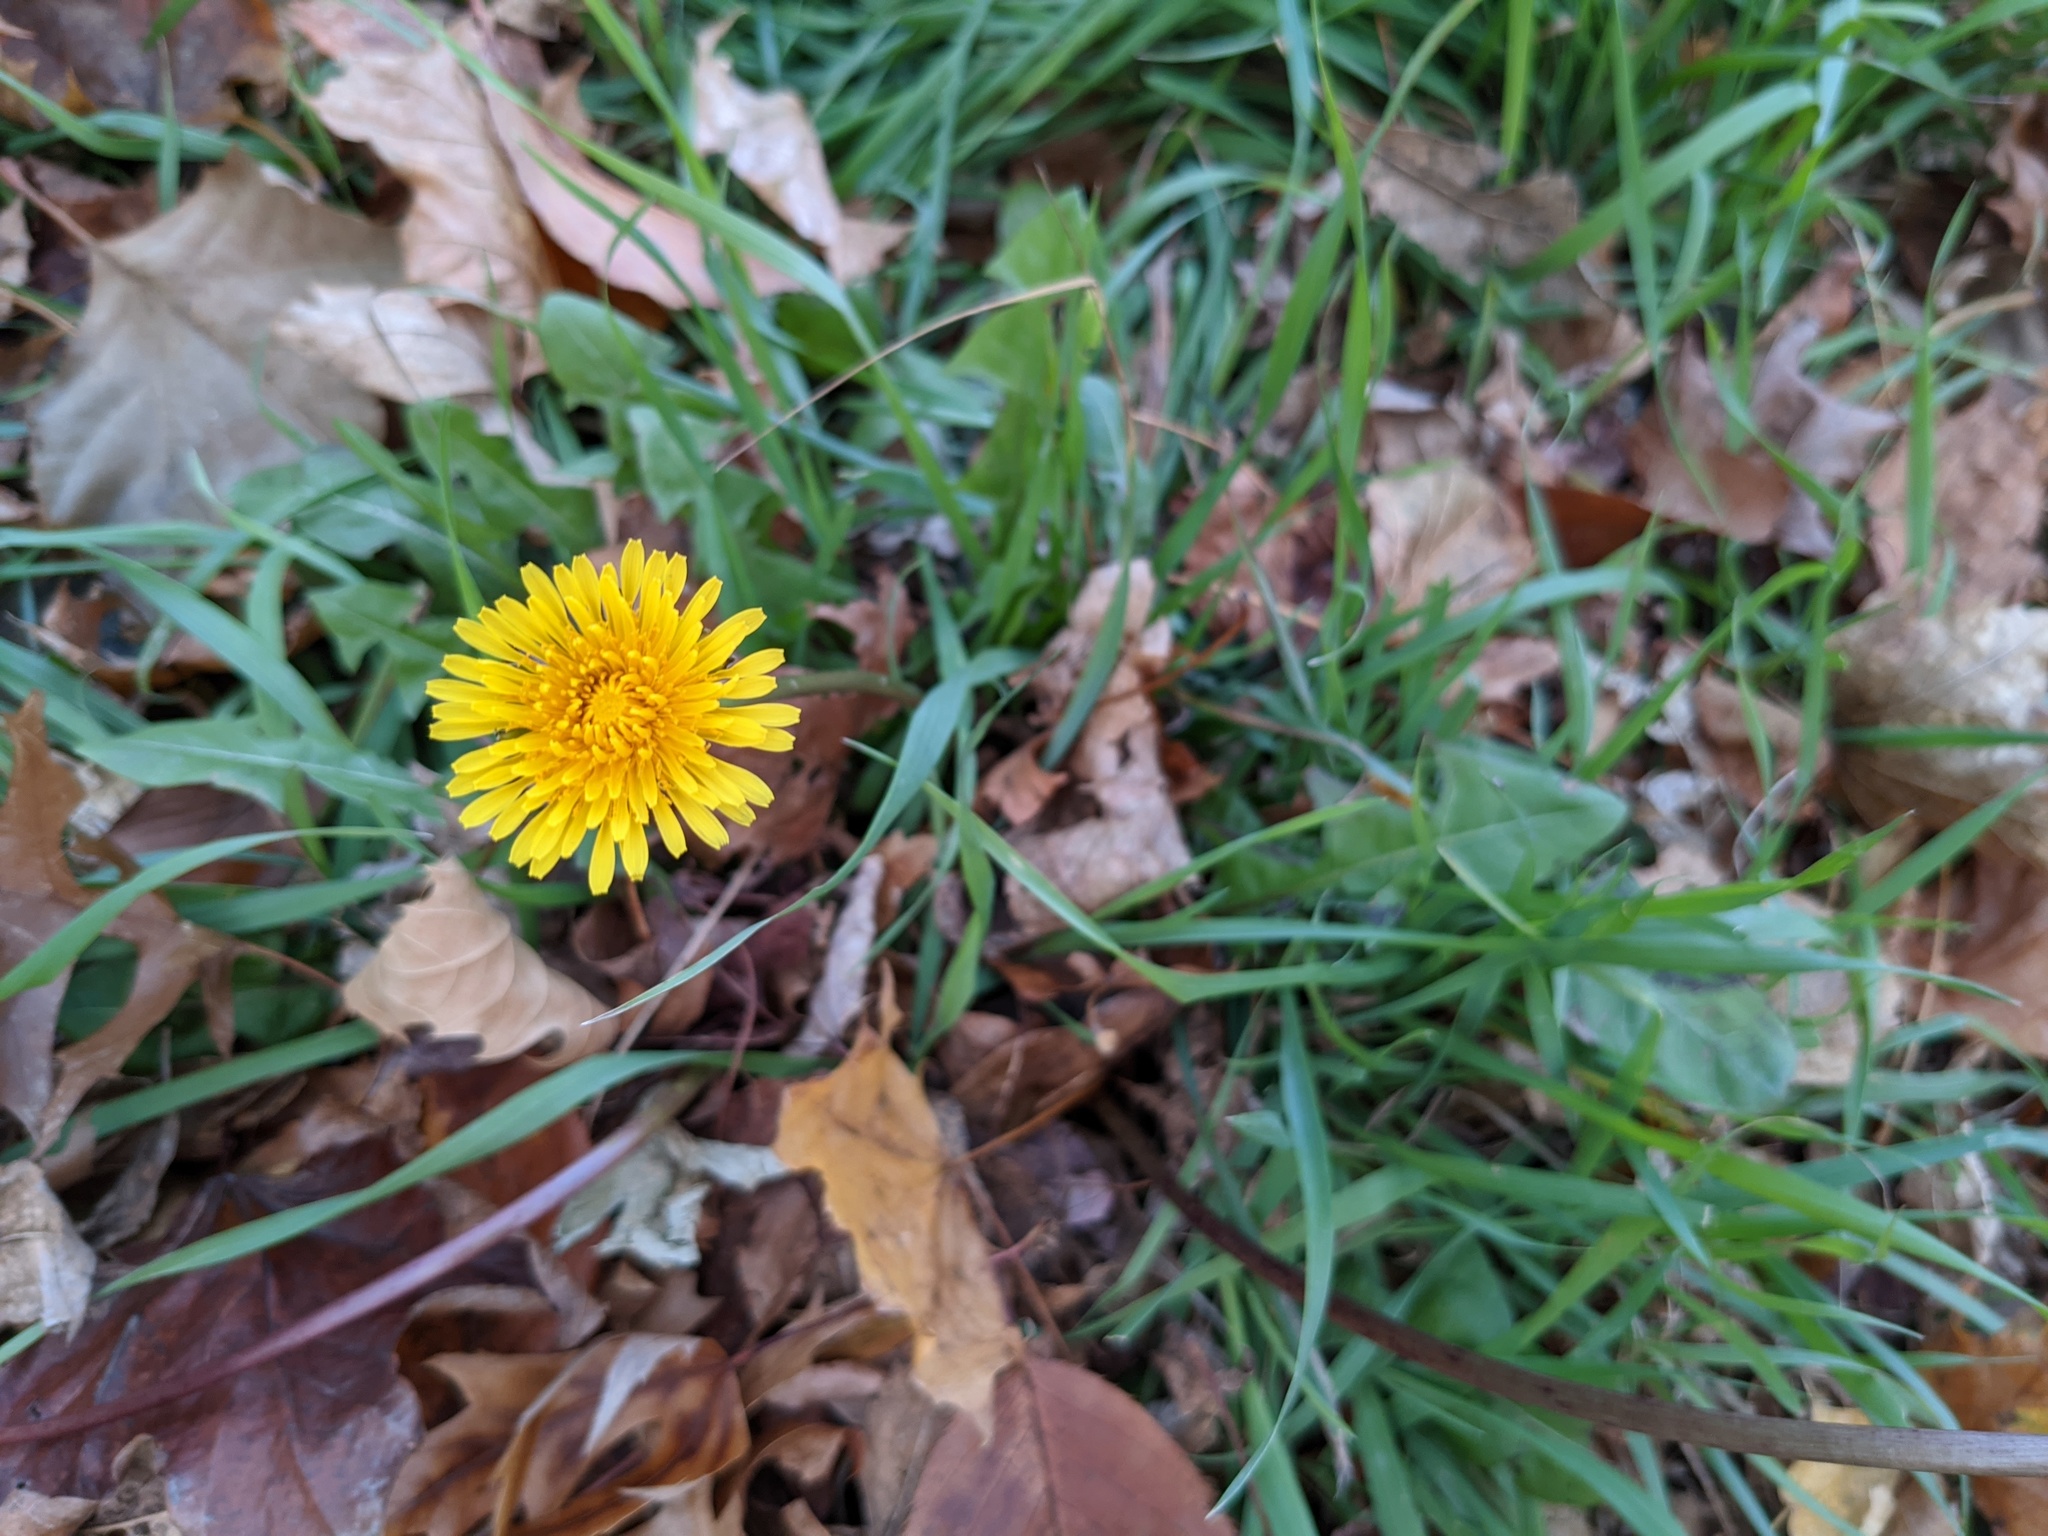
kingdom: Plantae
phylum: Tracheophyta
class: Magnoliopsida
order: Asterales
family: Asteraceae
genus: Taraxacum
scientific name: Taraxacum officinale
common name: Common dandelion
